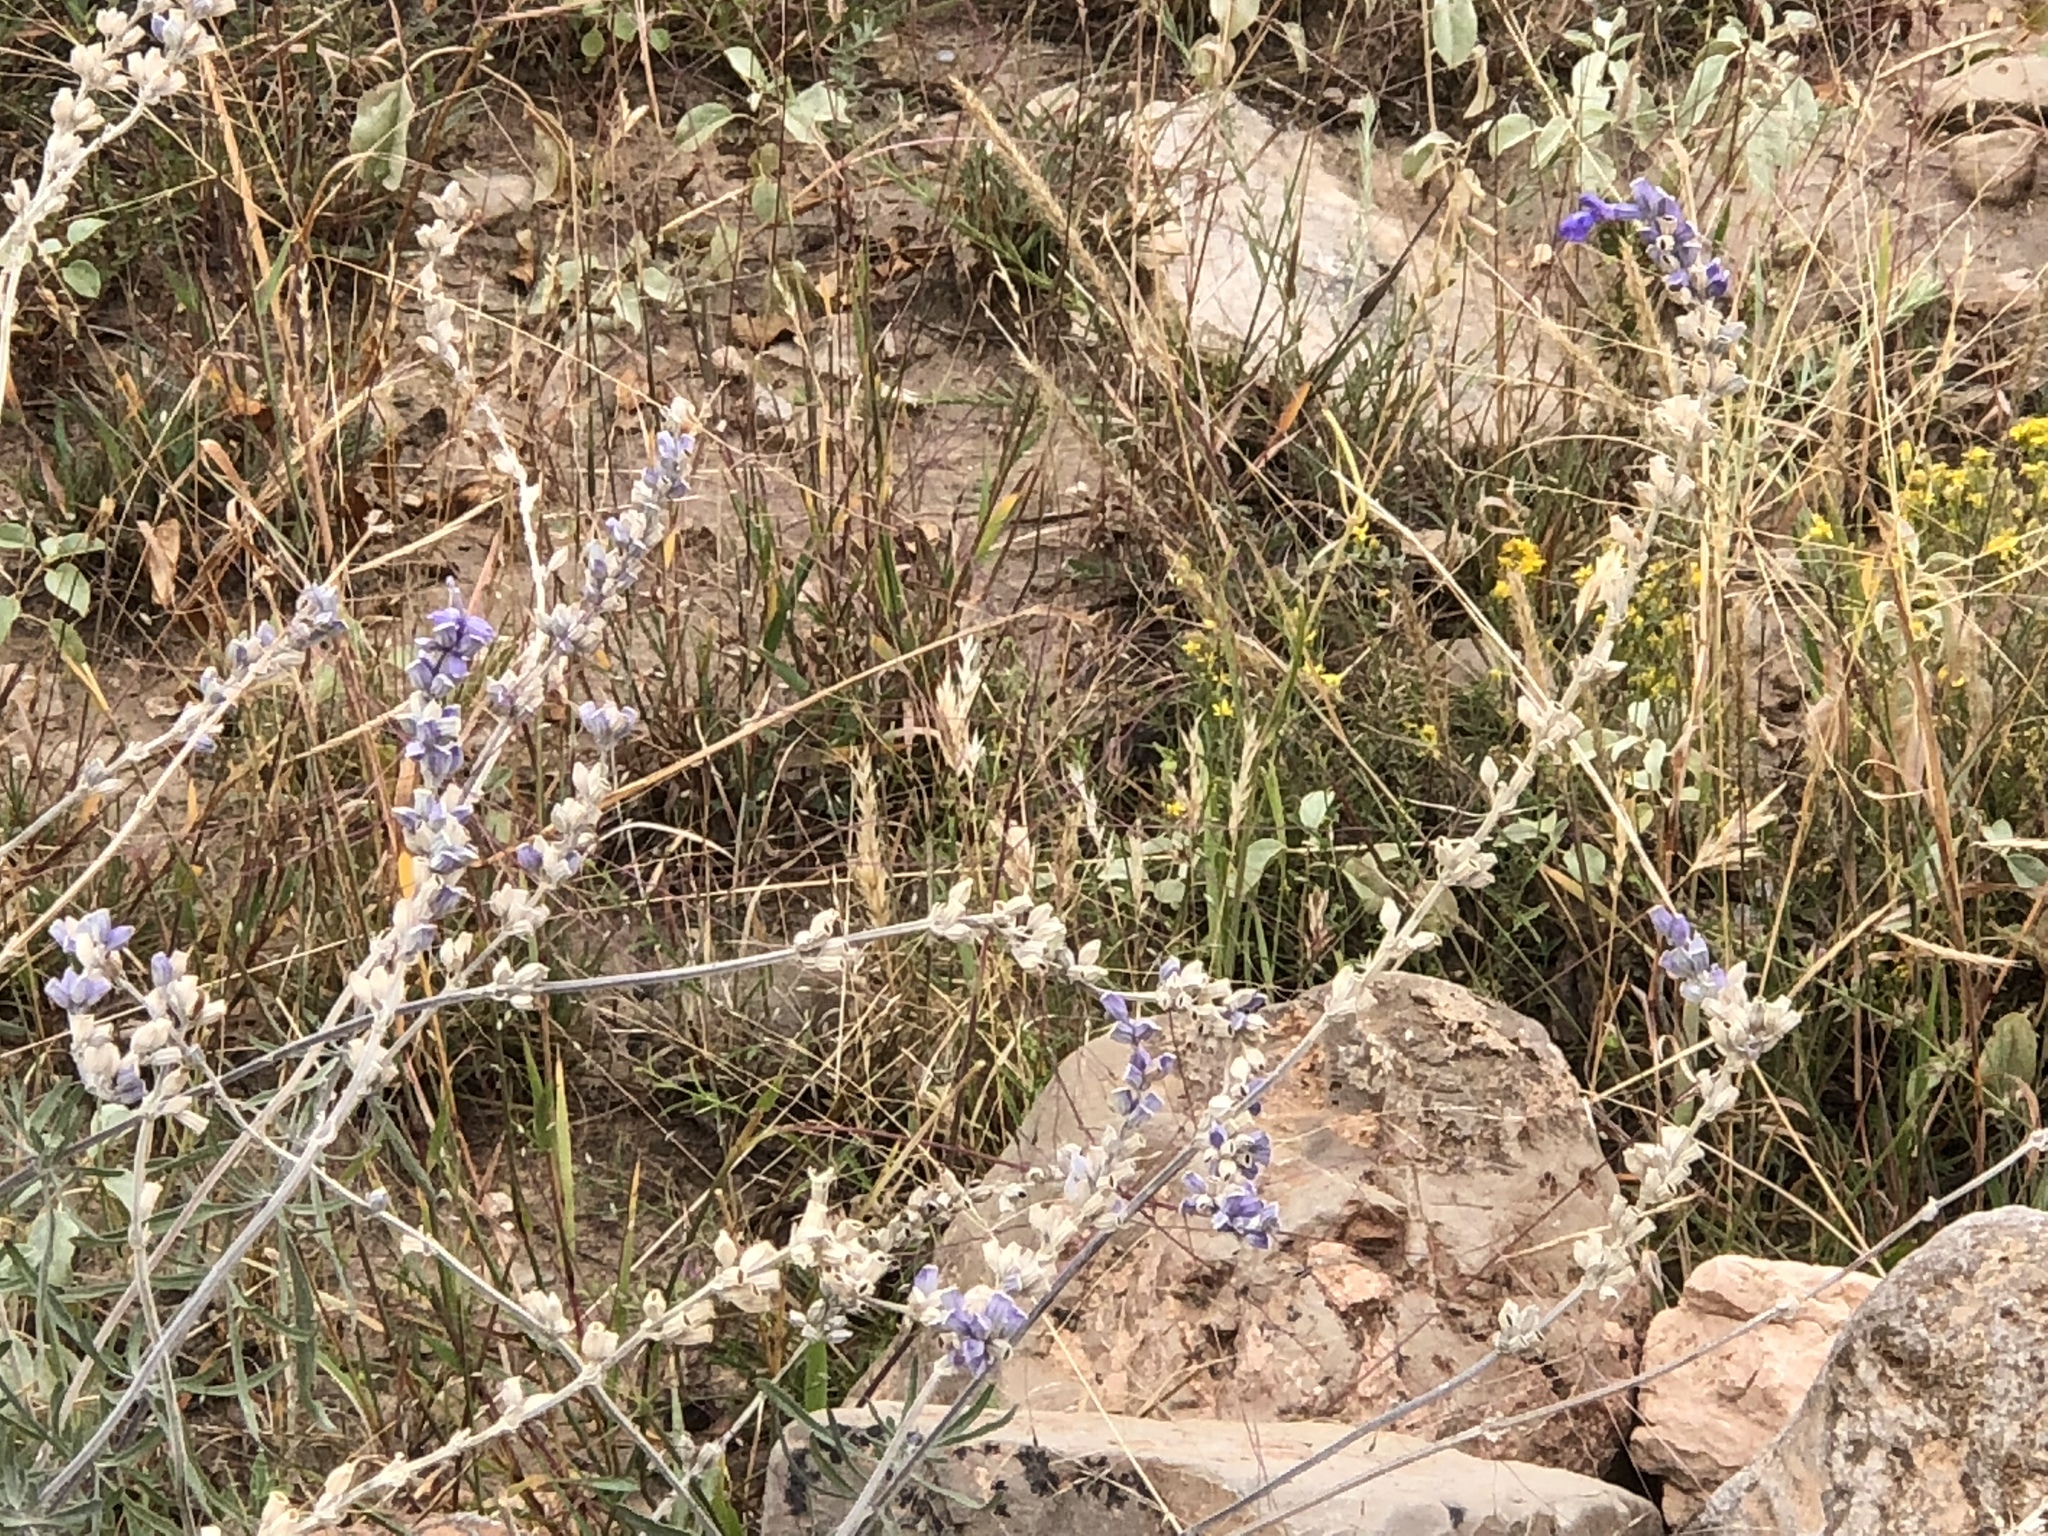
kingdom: Plantae
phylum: Tracheophyta
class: Magnoliopsida
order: Lamiales
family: Lamiaceae
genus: Salvia
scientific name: Salvia farinacea
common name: Mealy sage
